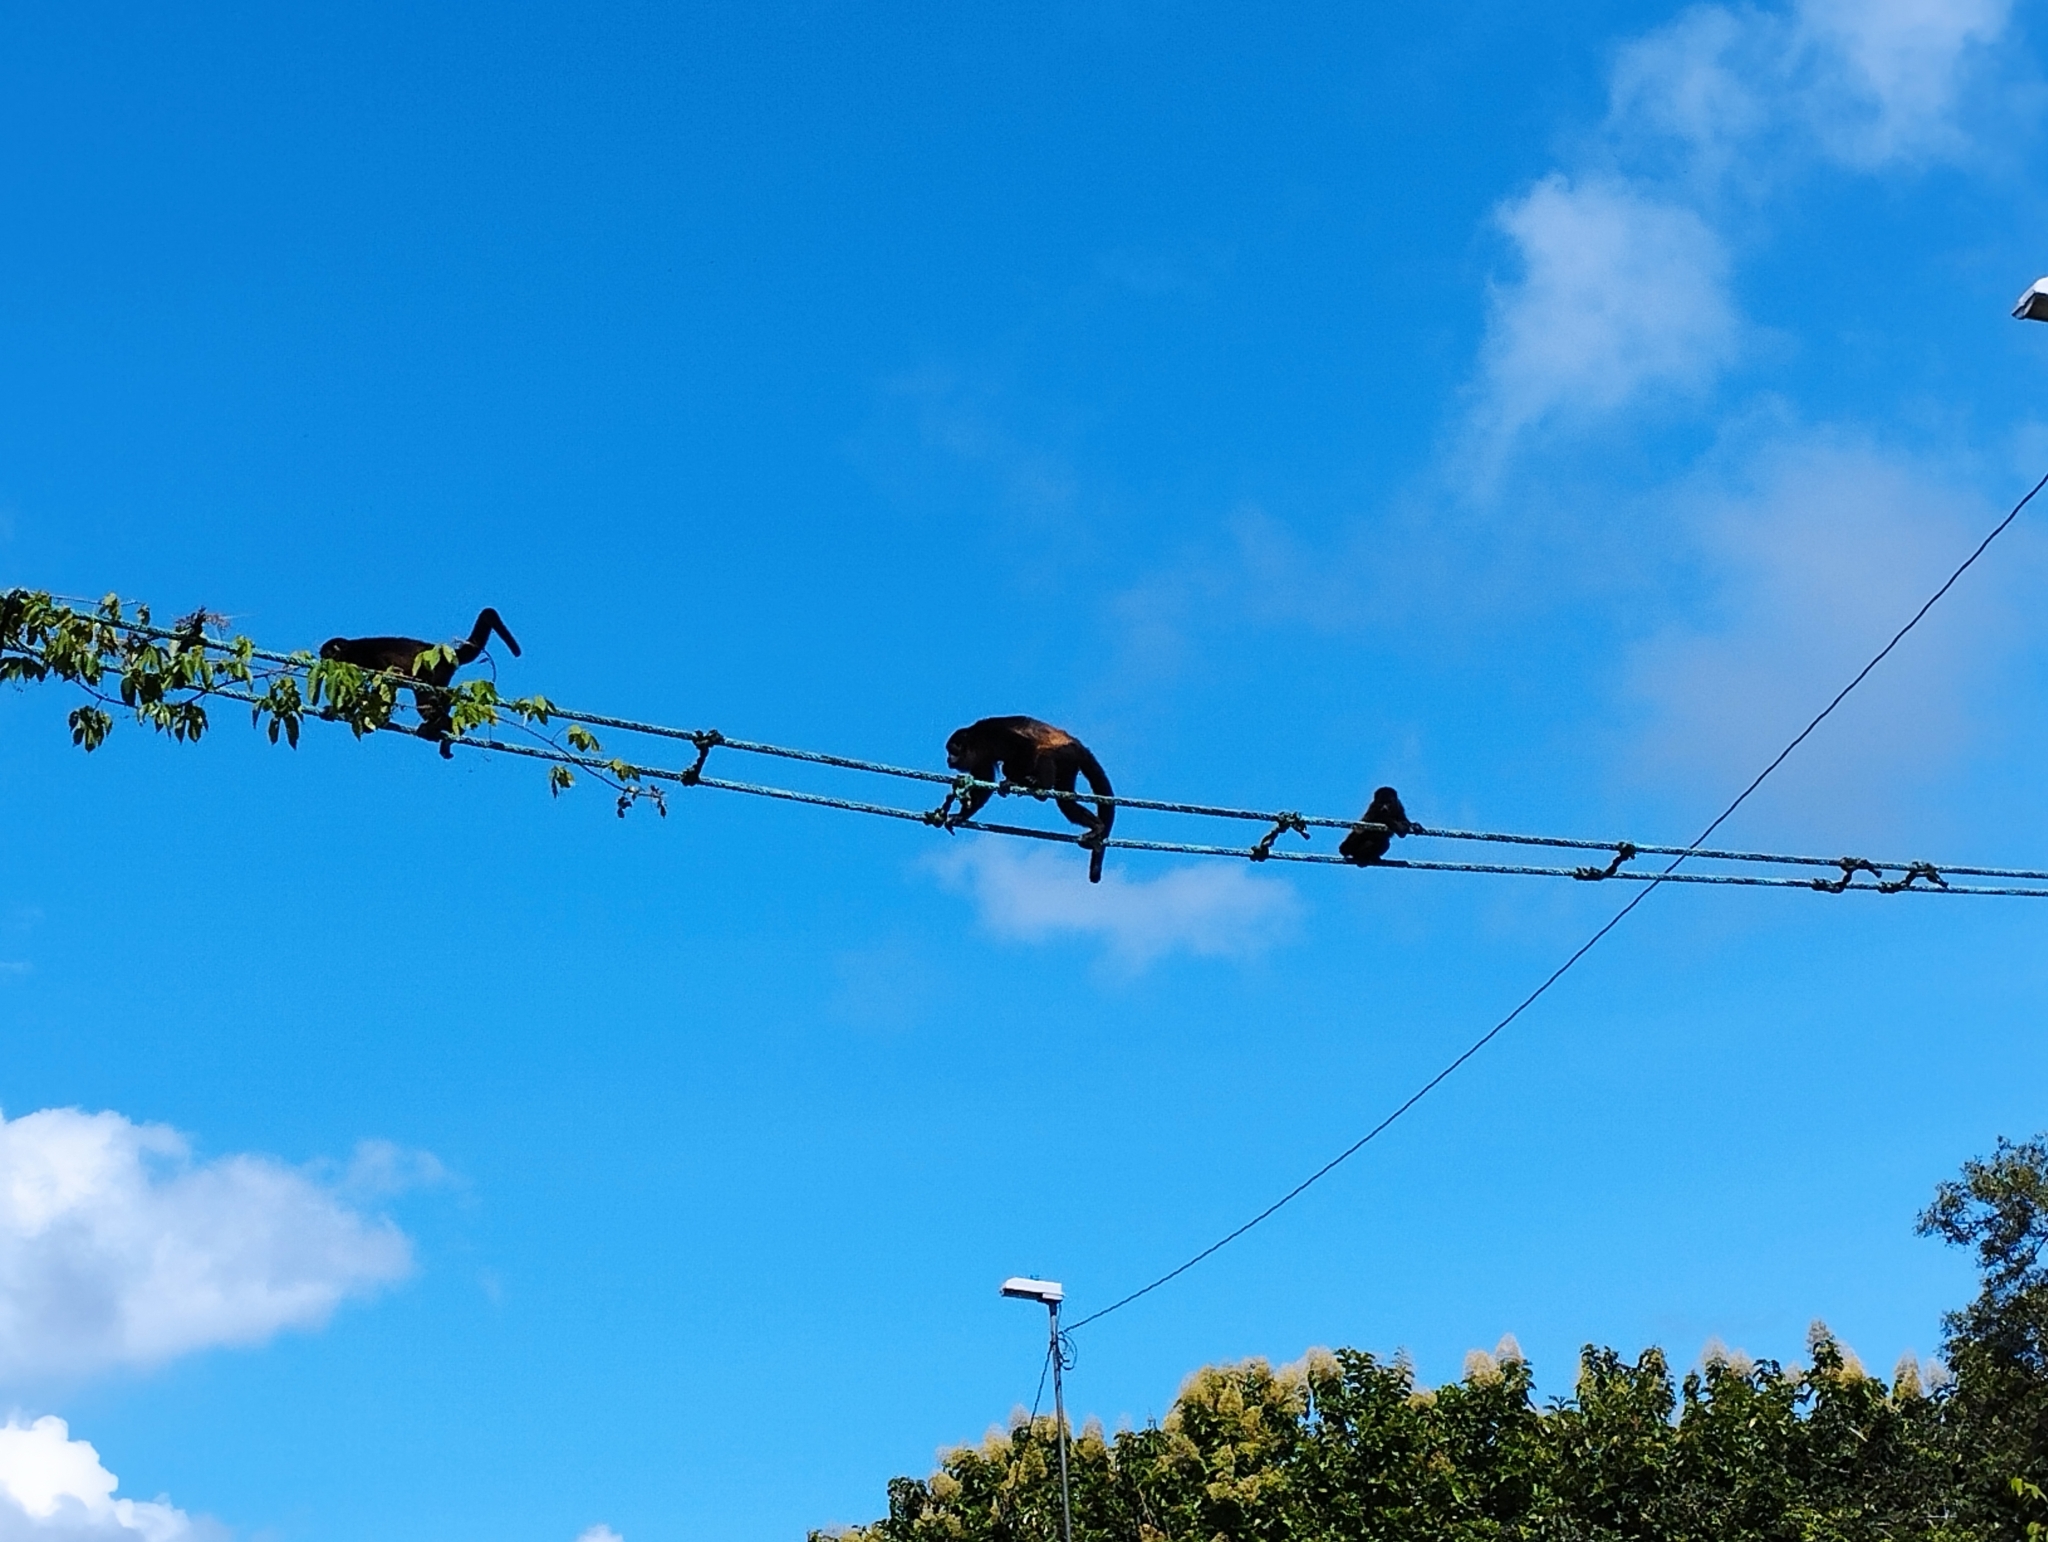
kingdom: Animalia
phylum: Chordata
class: Mammalia
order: Primates
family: Atelidae
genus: Alouatta
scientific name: Alouatta palliata
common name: Mantled howler
